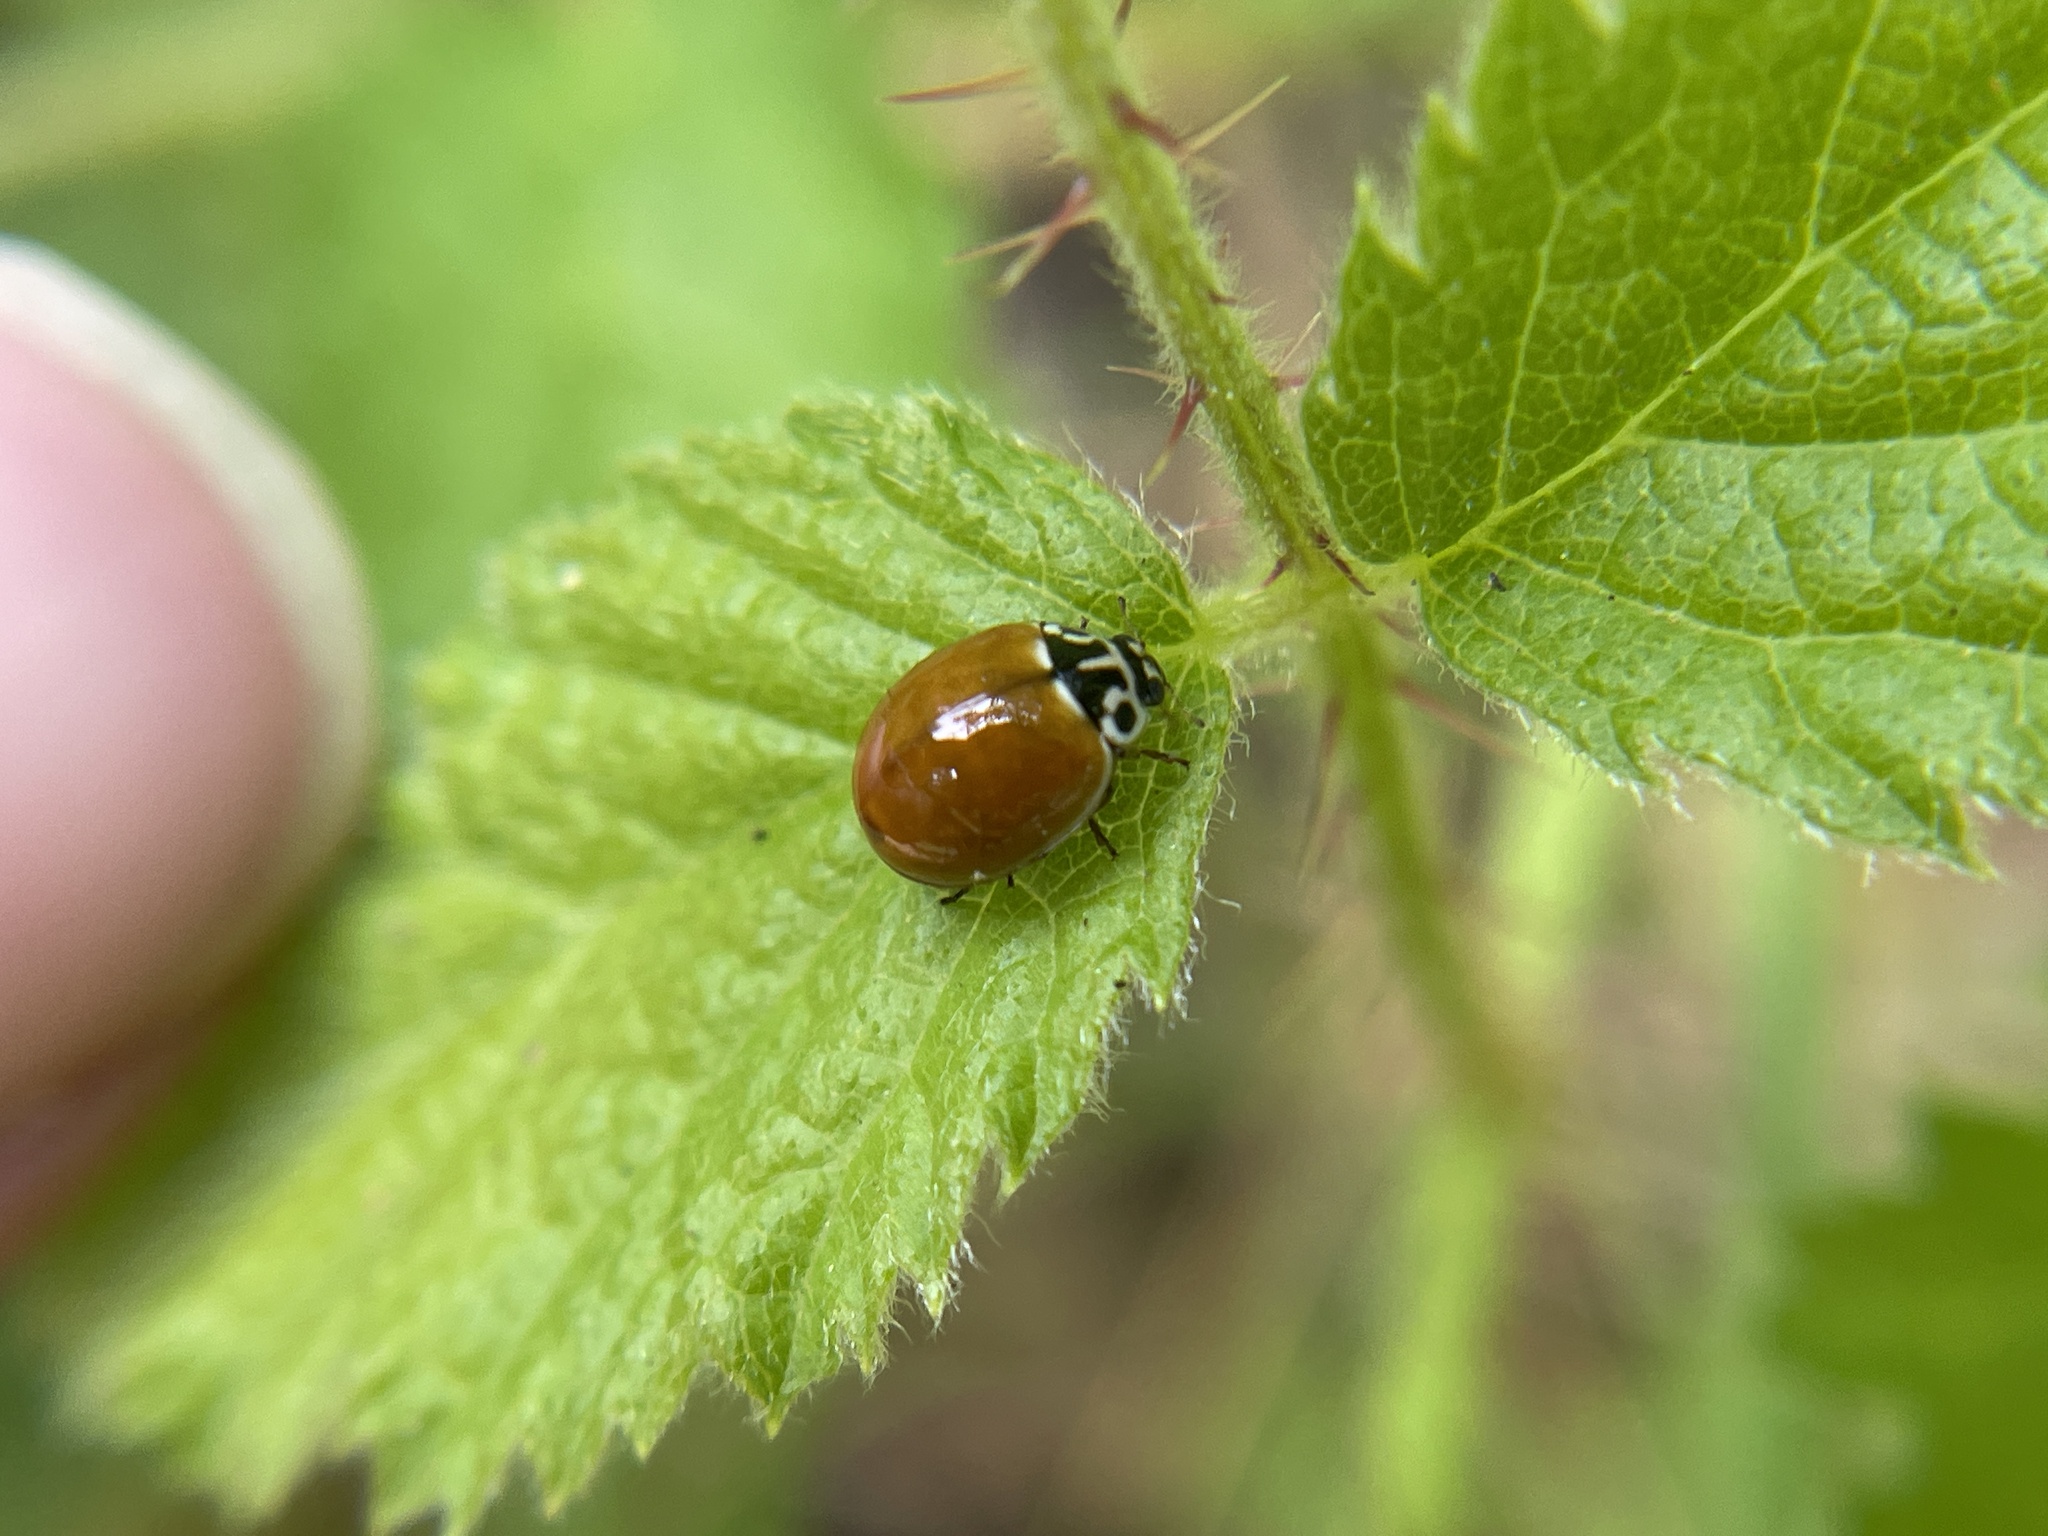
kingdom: Animalia
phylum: Arthropoda
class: Insecta
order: Coleoptera
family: Coccinellidae
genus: Cycloneda
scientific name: Cycloneda polita
